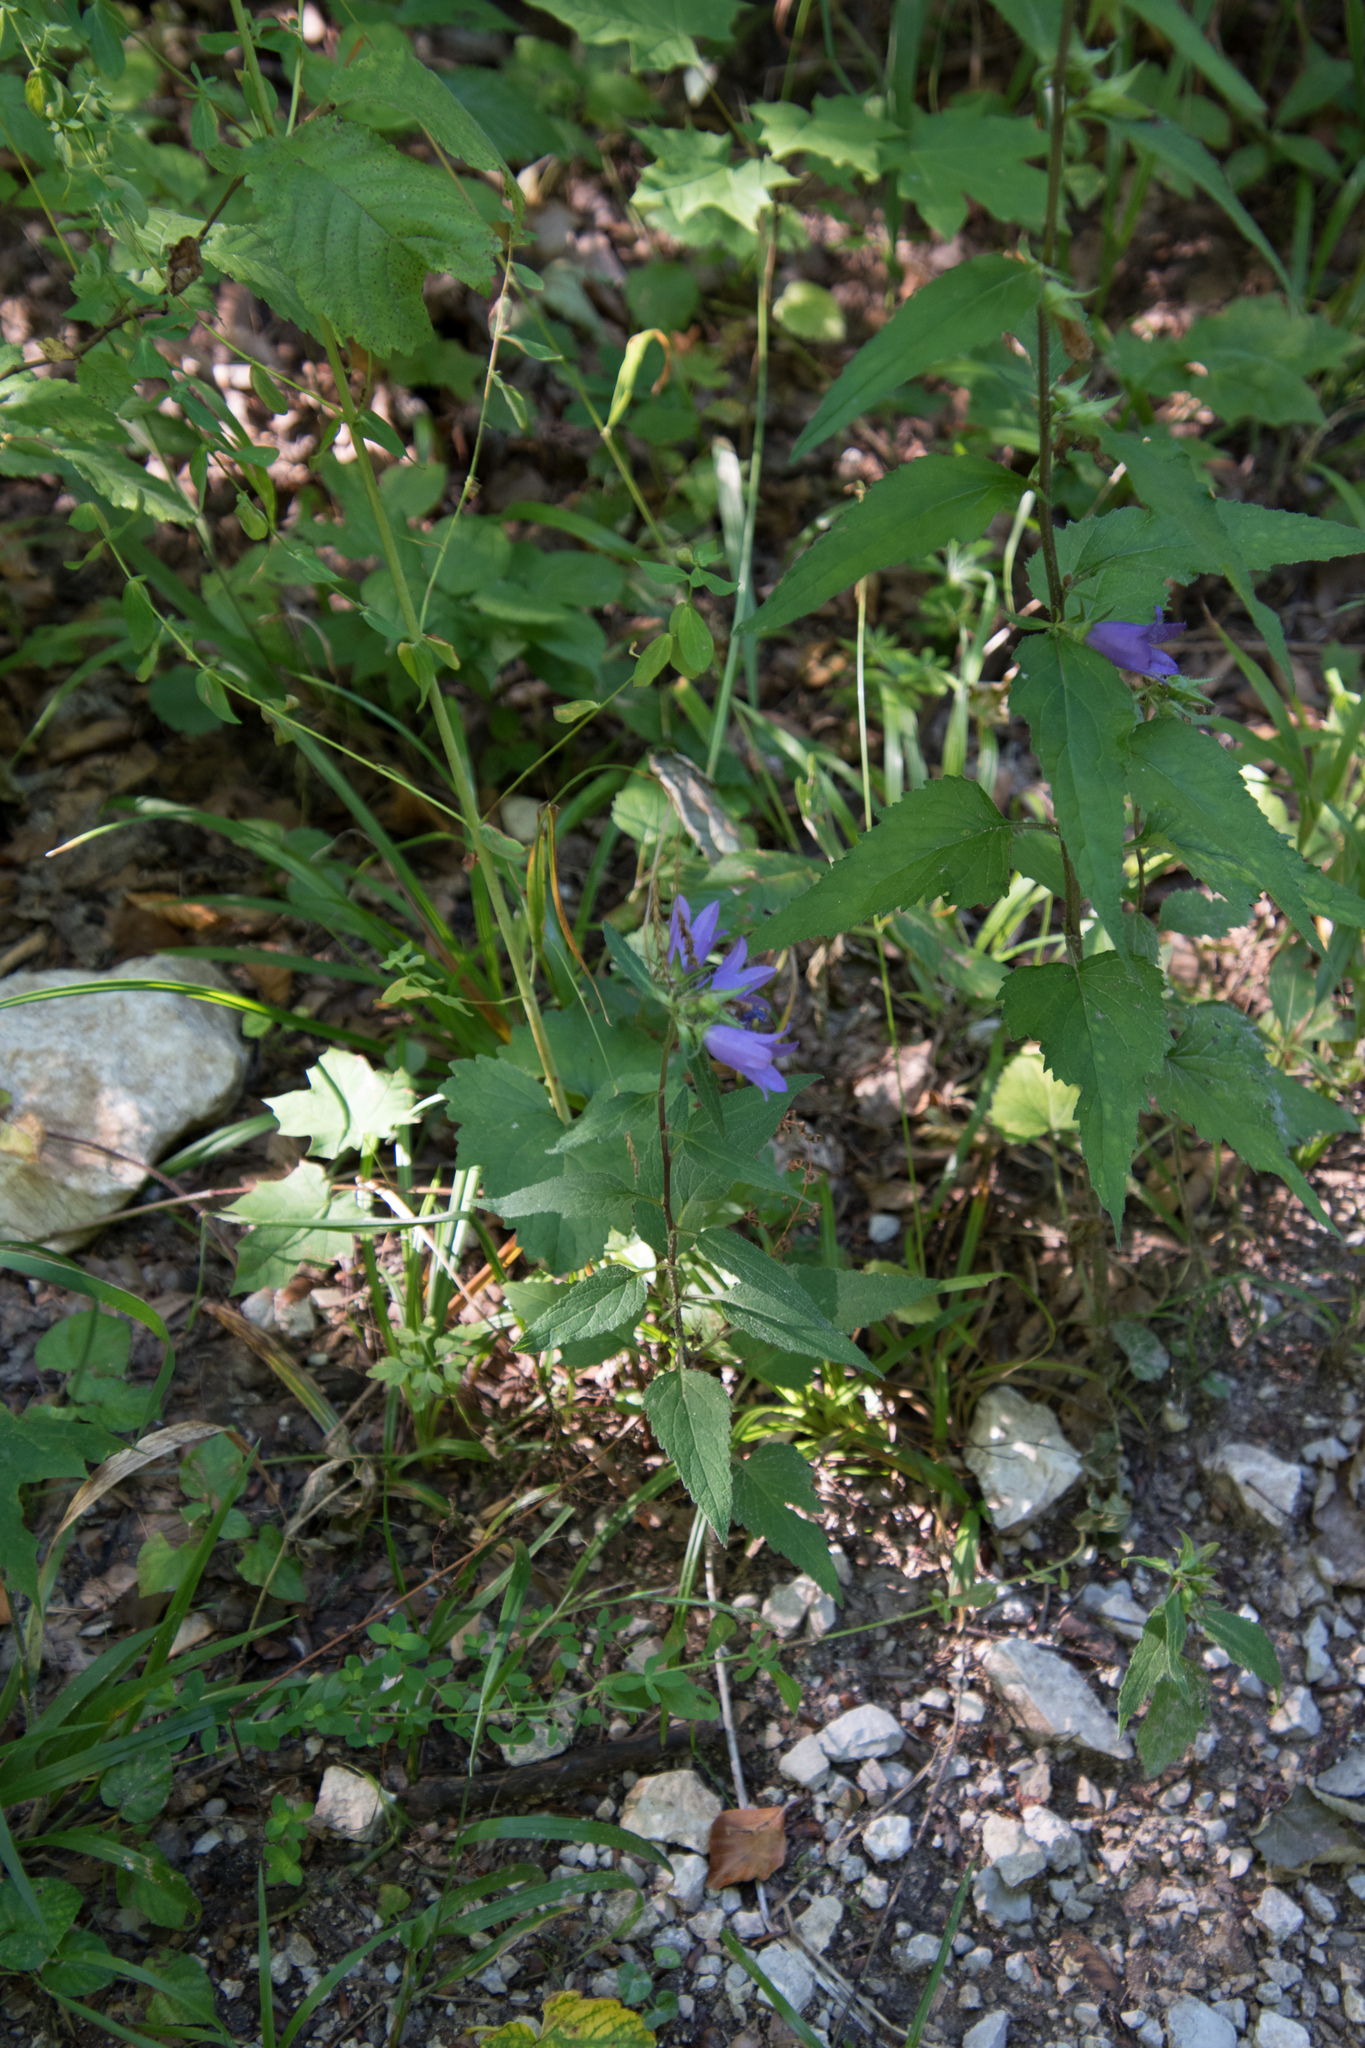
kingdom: Plantae
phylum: Tracheophyta
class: Magnoliopsida
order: Asterales
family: Campanulaceae
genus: Campanula
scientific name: Campanula trachelium
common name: Nettle-leaved bellflower
